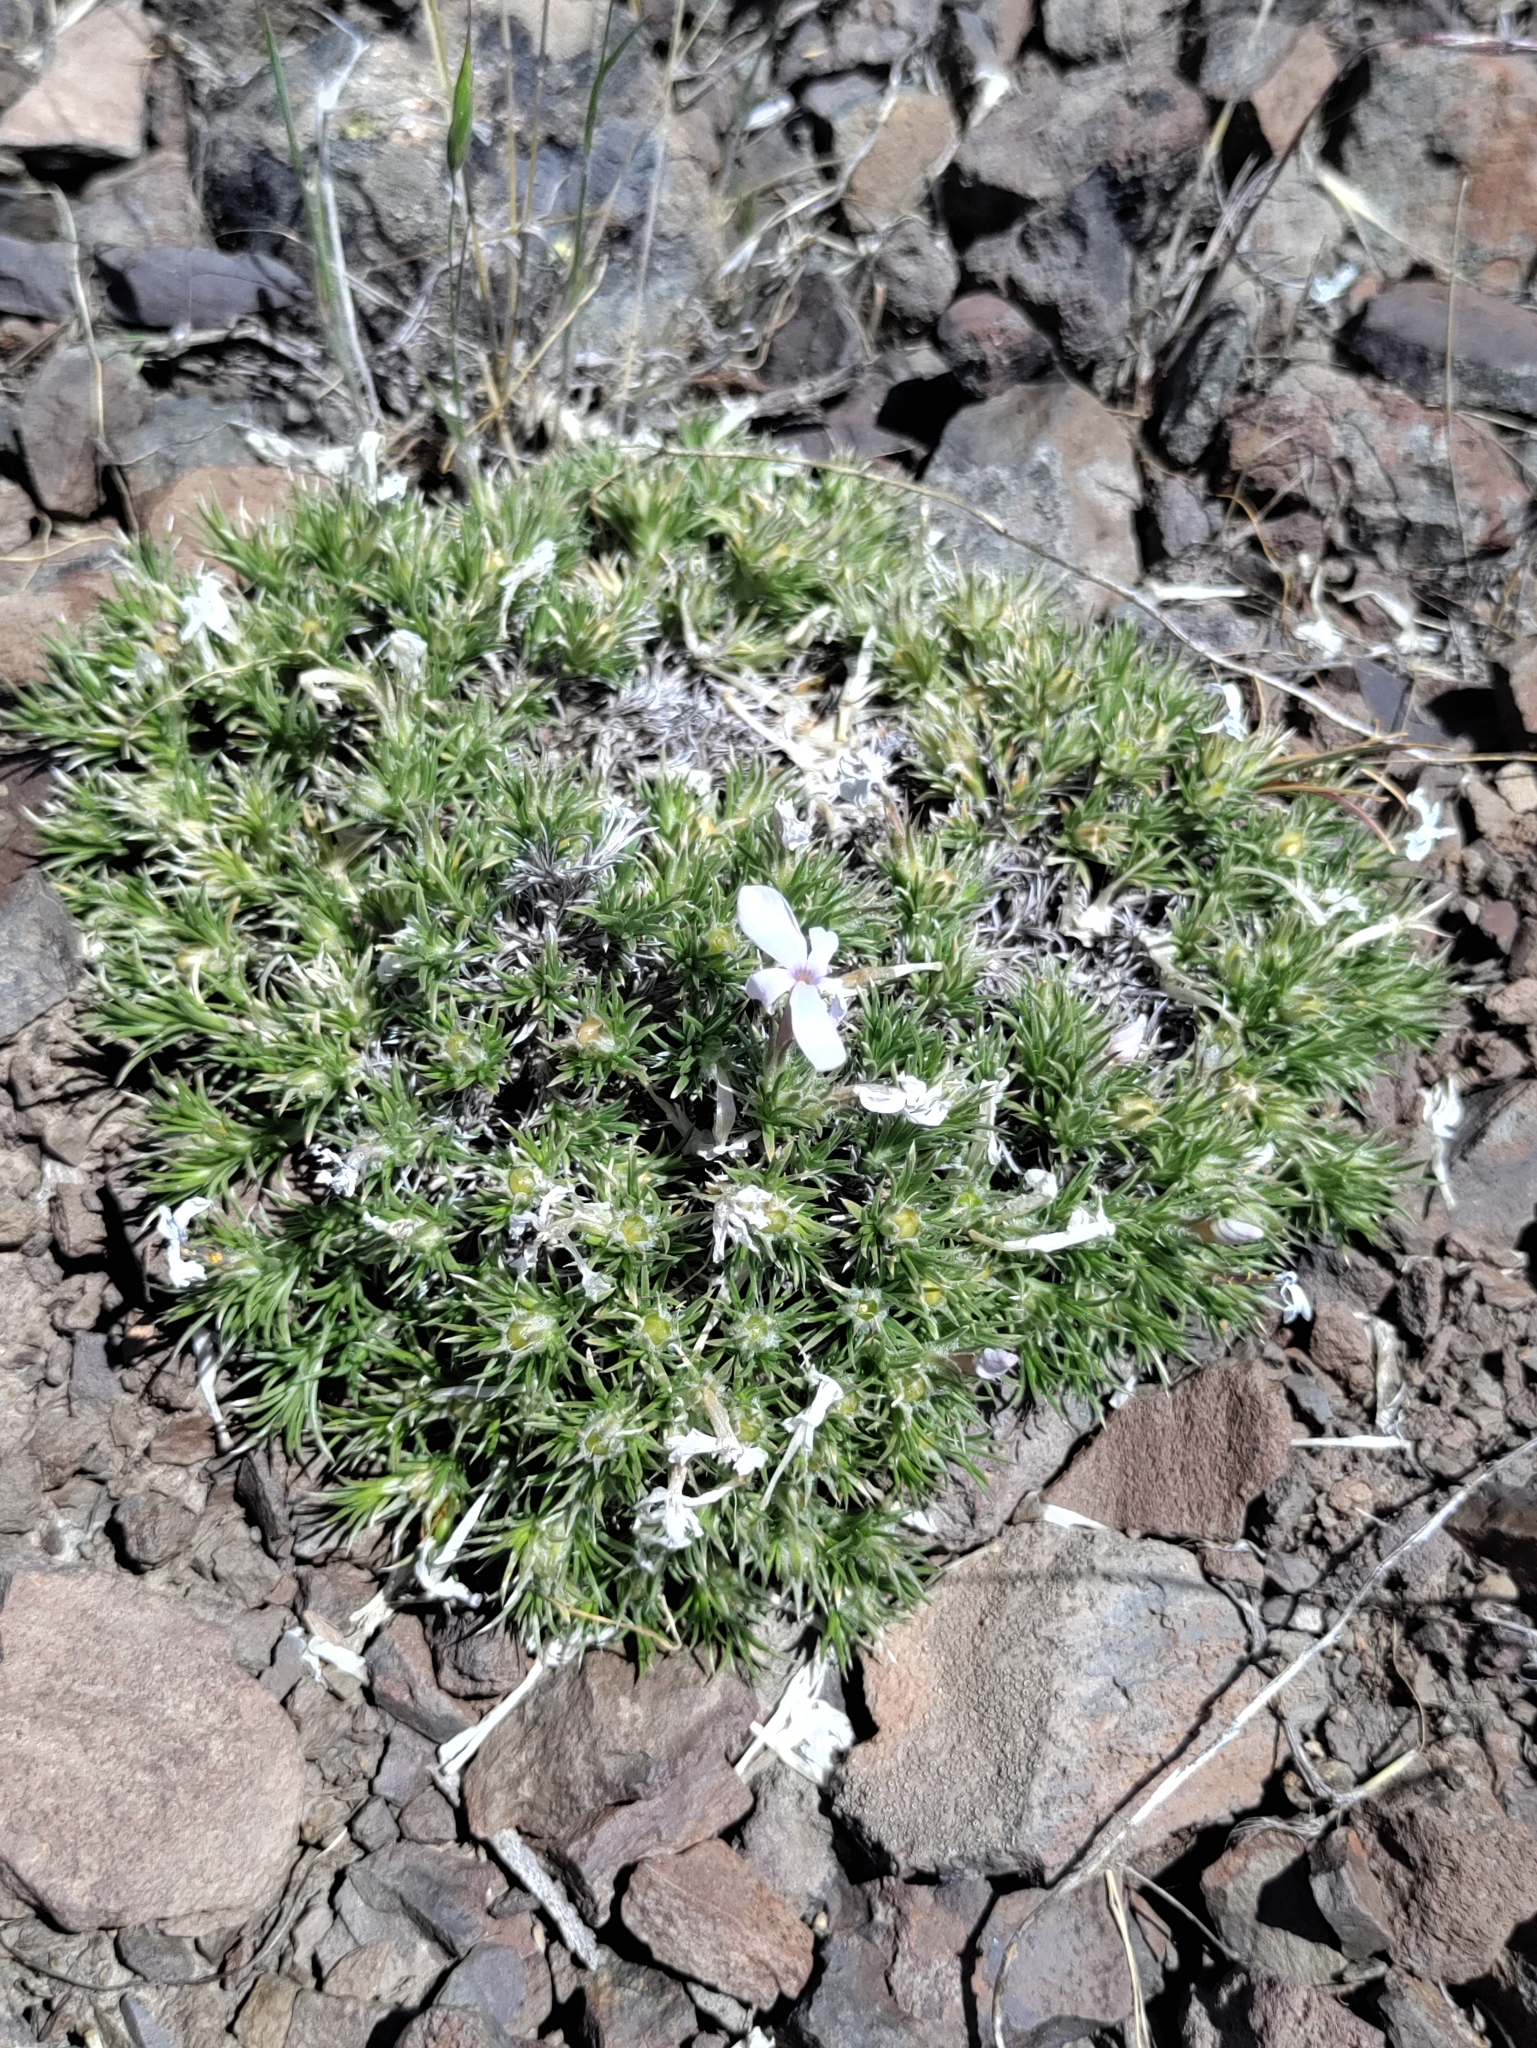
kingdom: Plantae
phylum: Tracheophyta
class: Magnoliopsida
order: Ericales
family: Polemoniaceae
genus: Phlox
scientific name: Phlox hoodii
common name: Moss phlox
